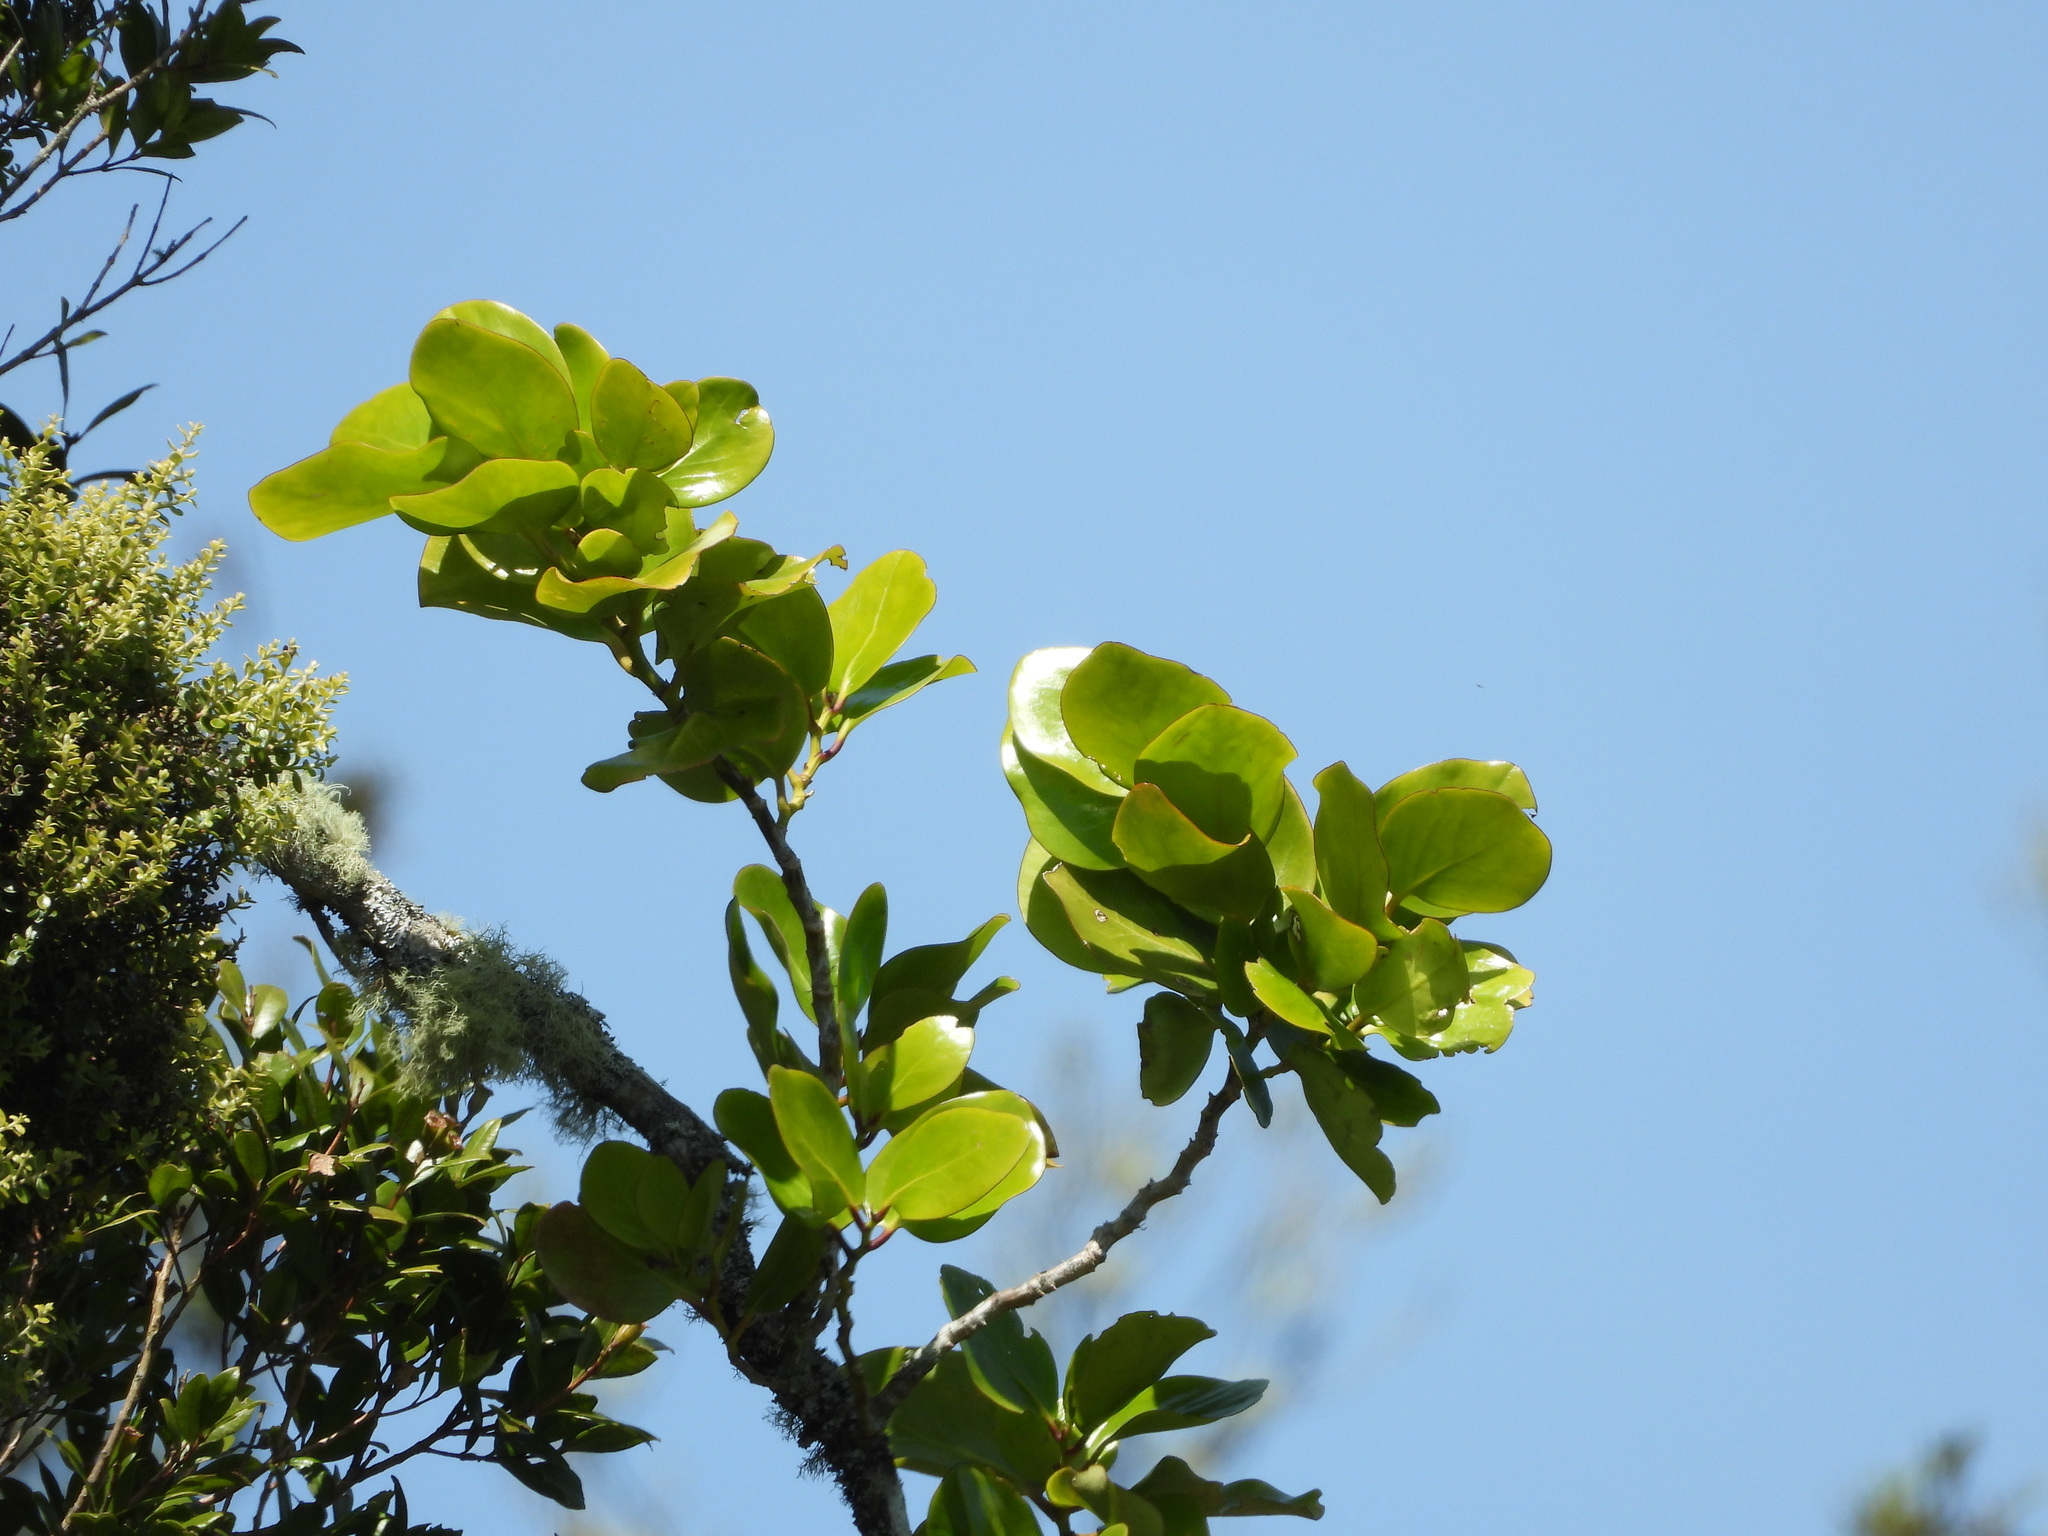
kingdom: Plantae
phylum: Tracheophyta
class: Magnoliopsida
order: Apiales
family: Griseliniaceae
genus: Griselinia
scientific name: Griselinia lucida
